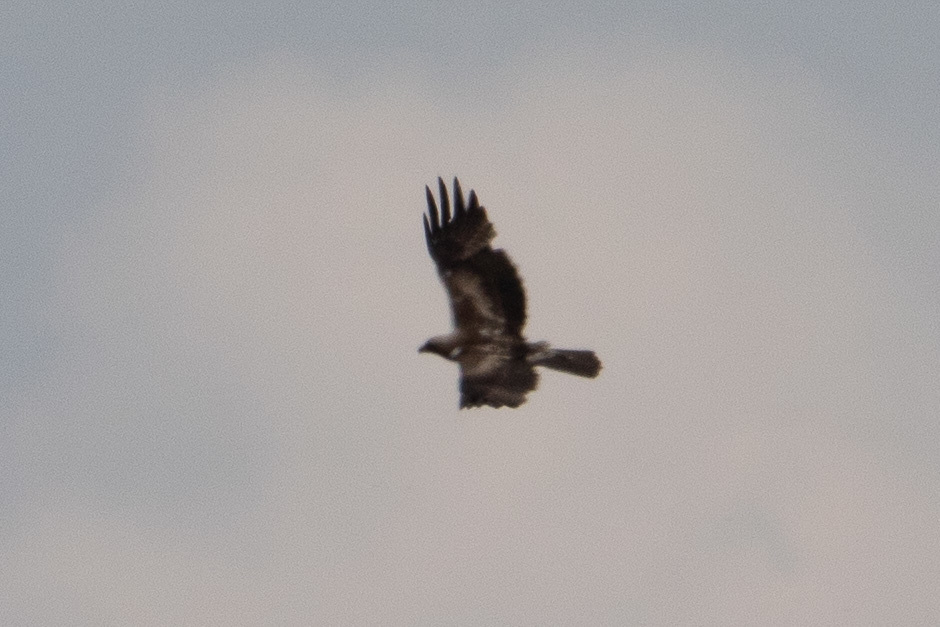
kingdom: Animalia
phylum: Chordata
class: Aves
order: Accipitriformes
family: Accipitridae
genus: Hieraaetus
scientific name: Hieraaetus pennatus
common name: Booted eagle
